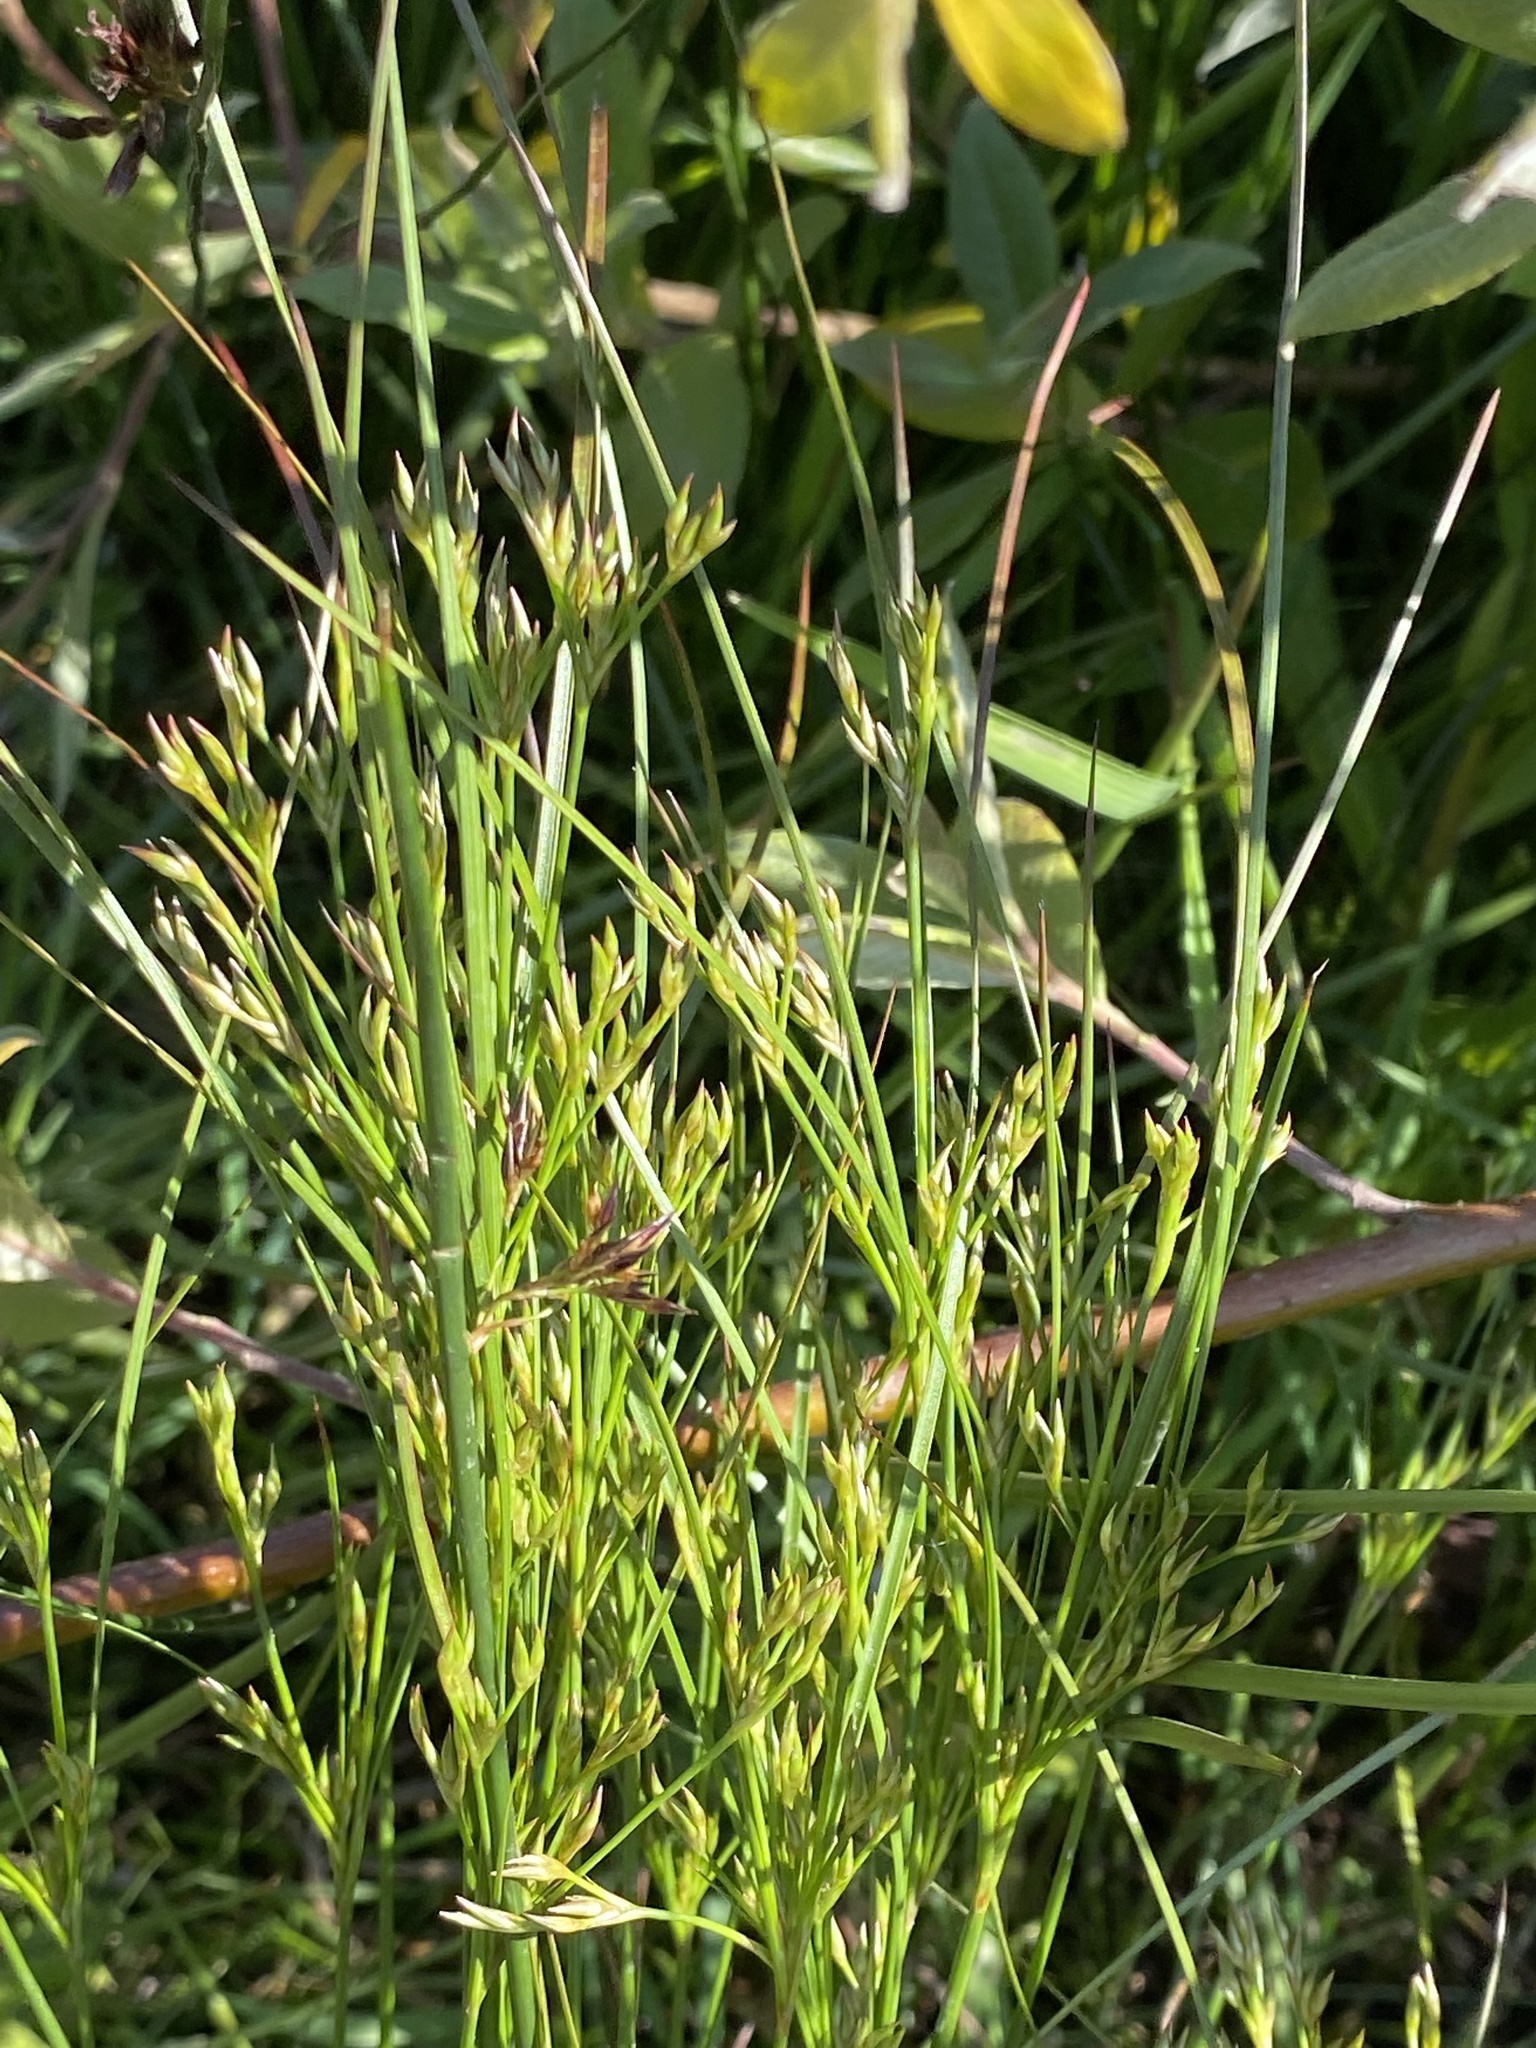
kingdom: Plantae
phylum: Tracheophyta
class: Liliopsida
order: Poales
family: Juncaceae
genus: Juncus
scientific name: Juncus tenuis
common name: Slender rush
